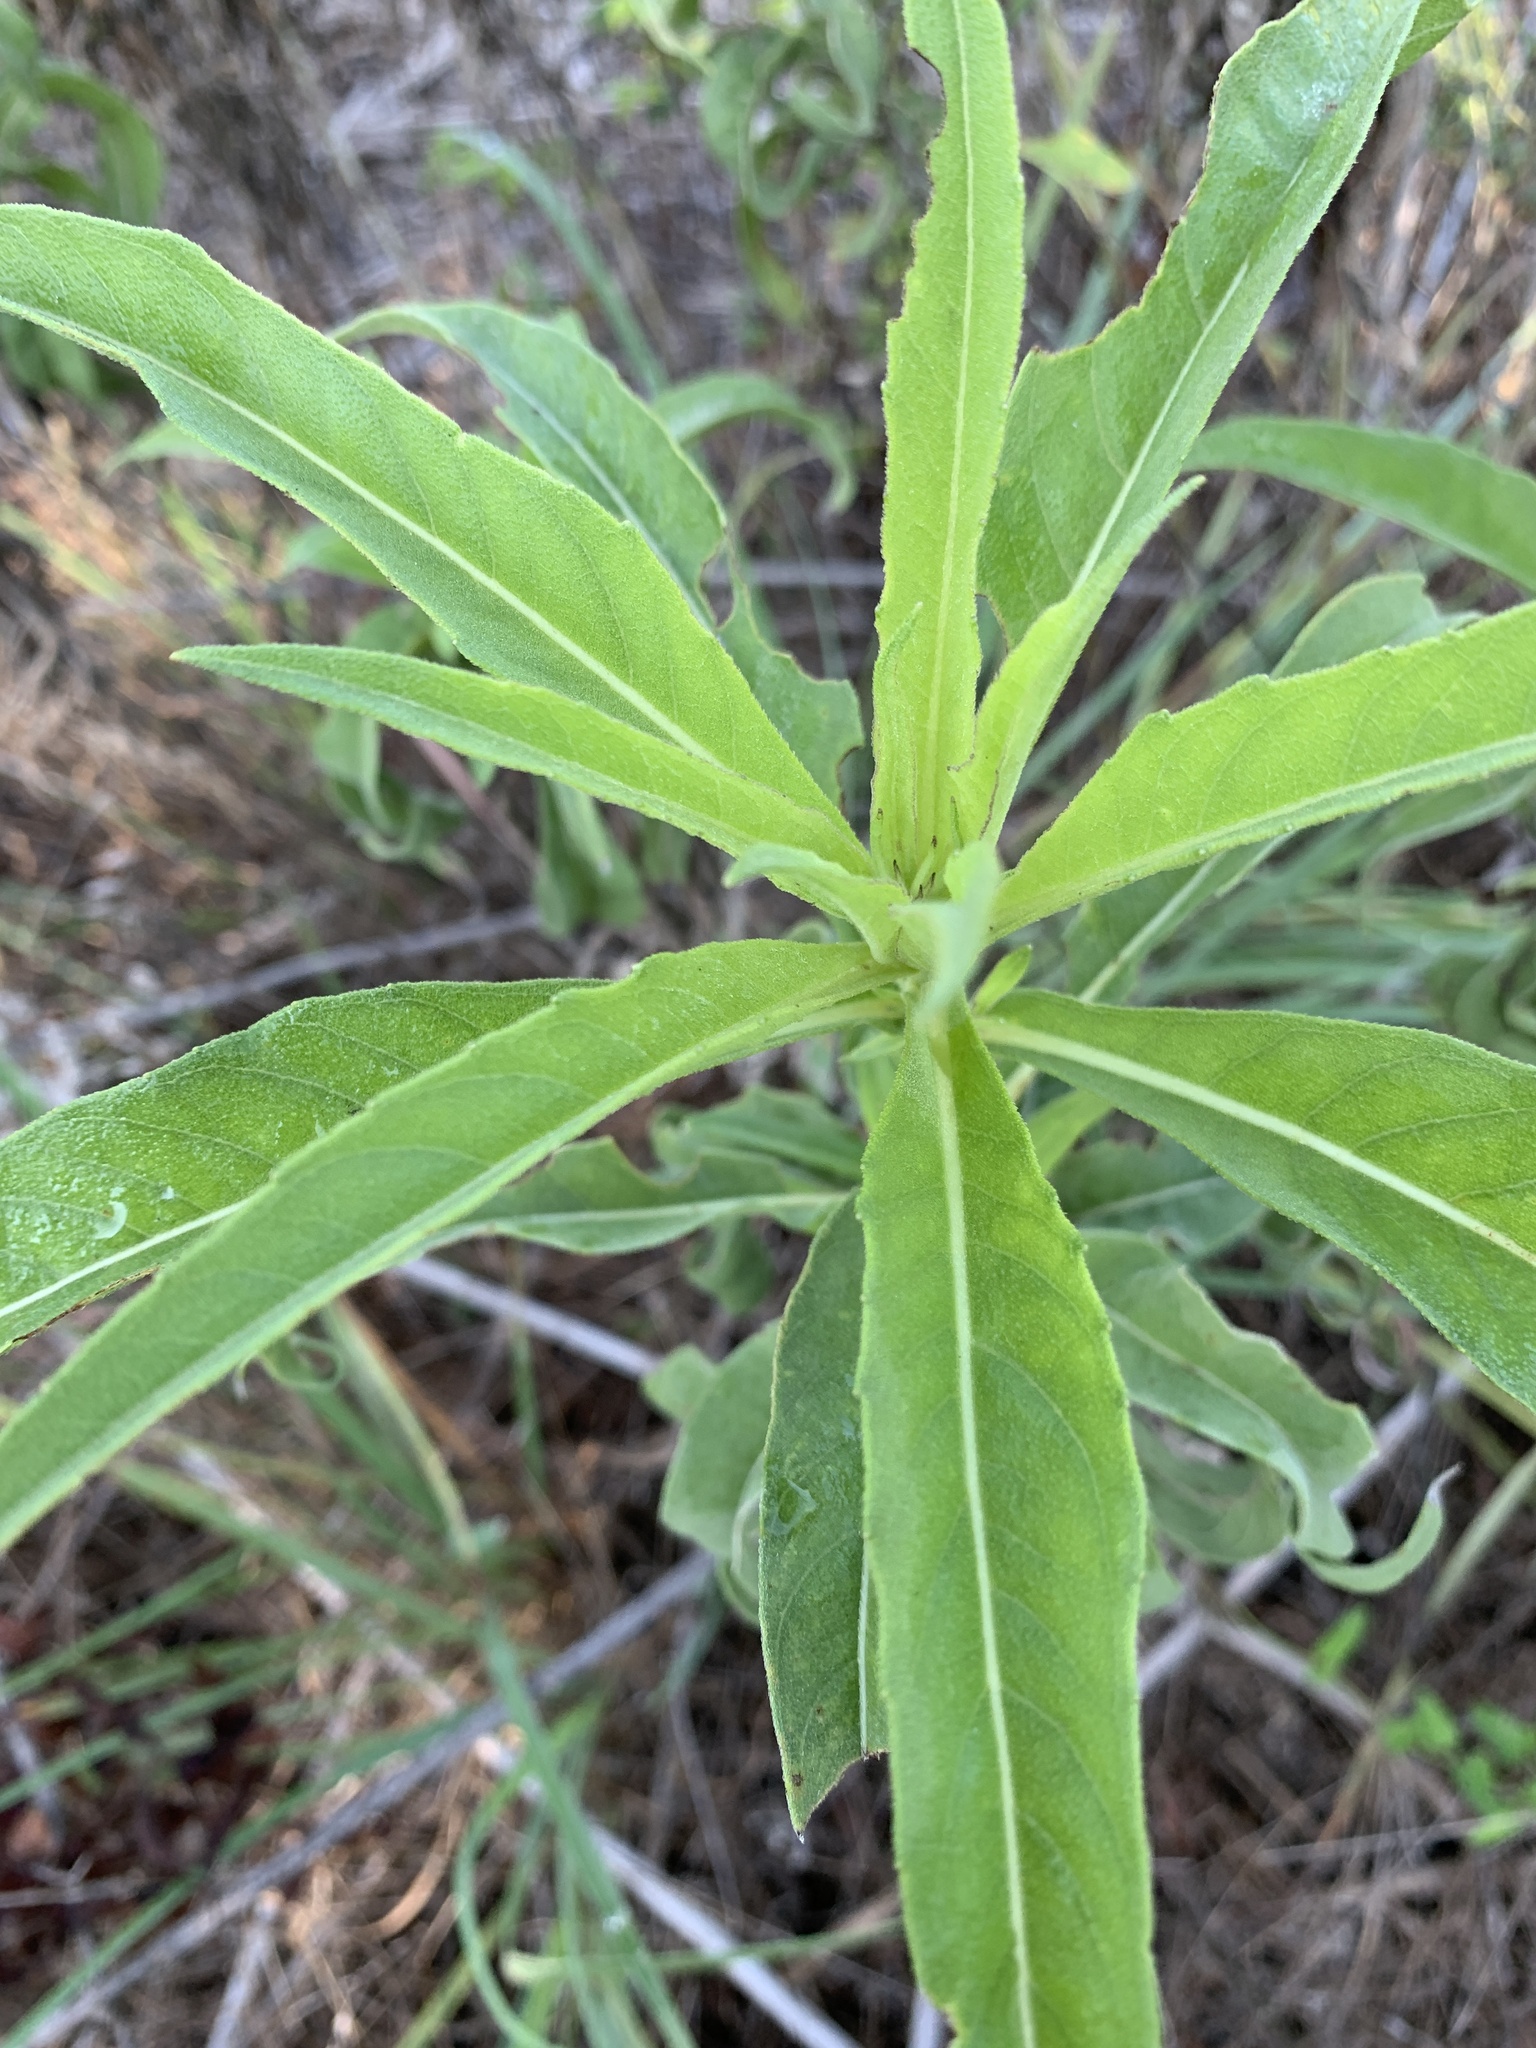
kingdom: Plantae
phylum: Tracheophyta
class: Magnoliopsida
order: Asterales
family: Asteraceae
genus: Helianthus
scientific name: Helianthus maximiliani
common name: Maximilian's sunflower
